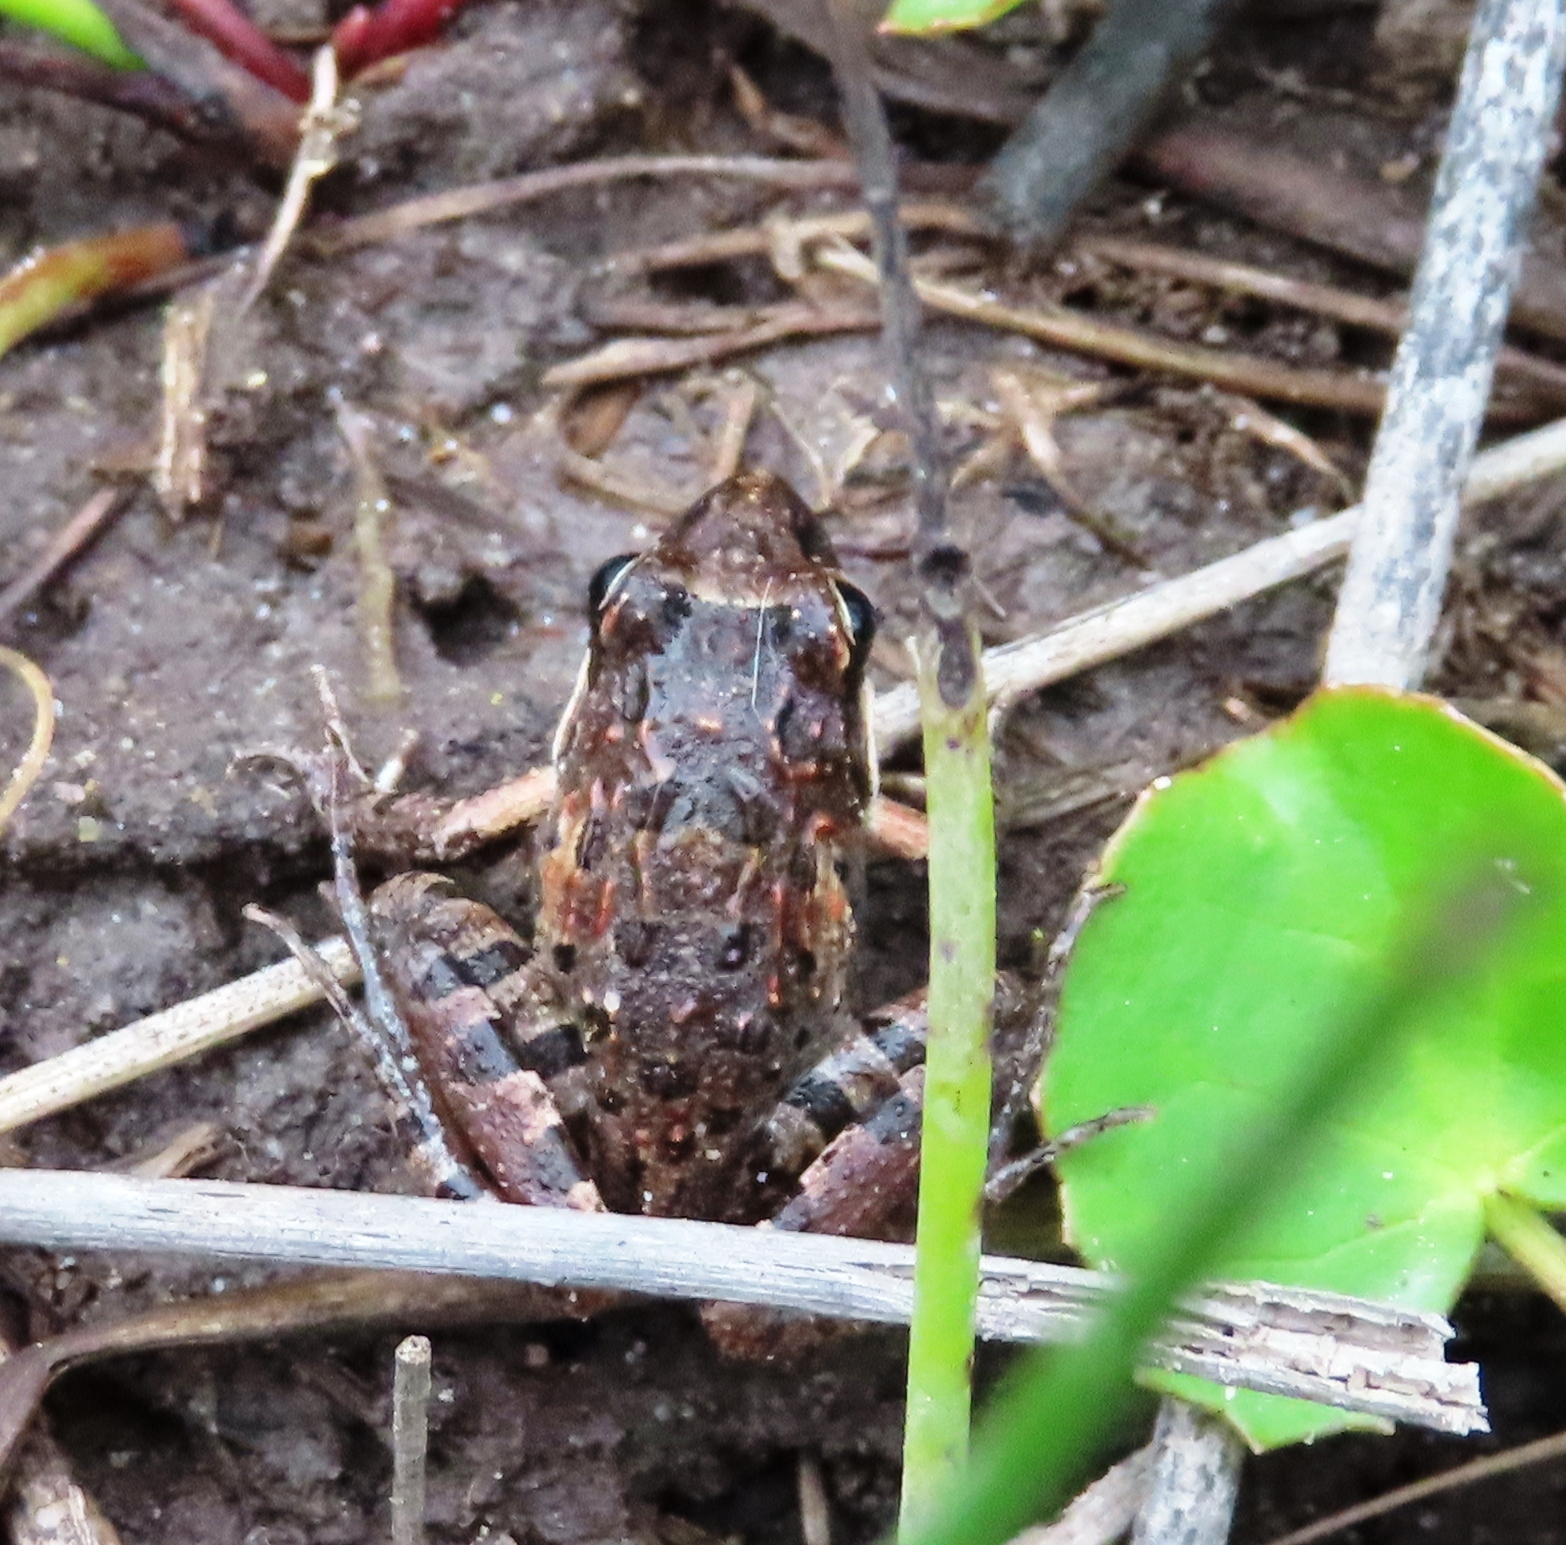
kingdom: Animalia
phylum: Chordata
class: Amphibia
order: Anura
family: Pyxicephalidae
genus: Strongylopus
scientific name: Strongylopus grayii
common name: Gray's stream frog
